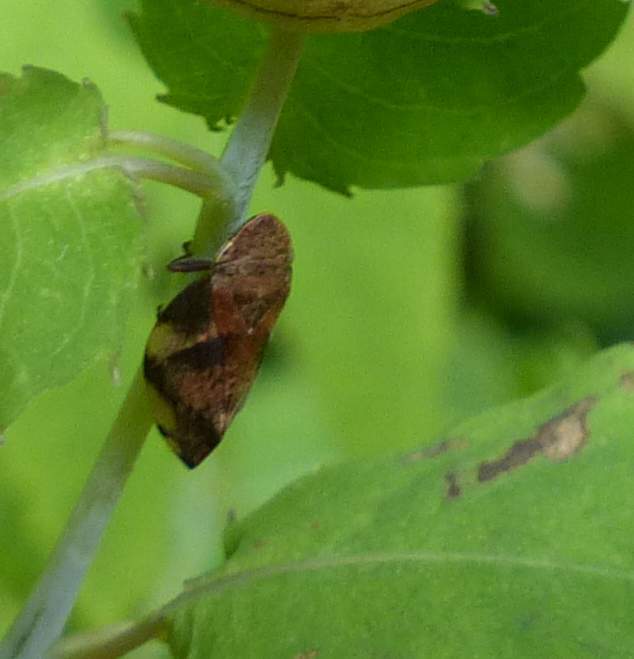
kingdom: Animalia
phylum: Arthropoda
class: Insecta
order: Hemiptera
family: Aphrophoridae
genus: Lepyronia
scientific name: Lepyronia quadrangularis
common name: Diamond-backed spittlebug
